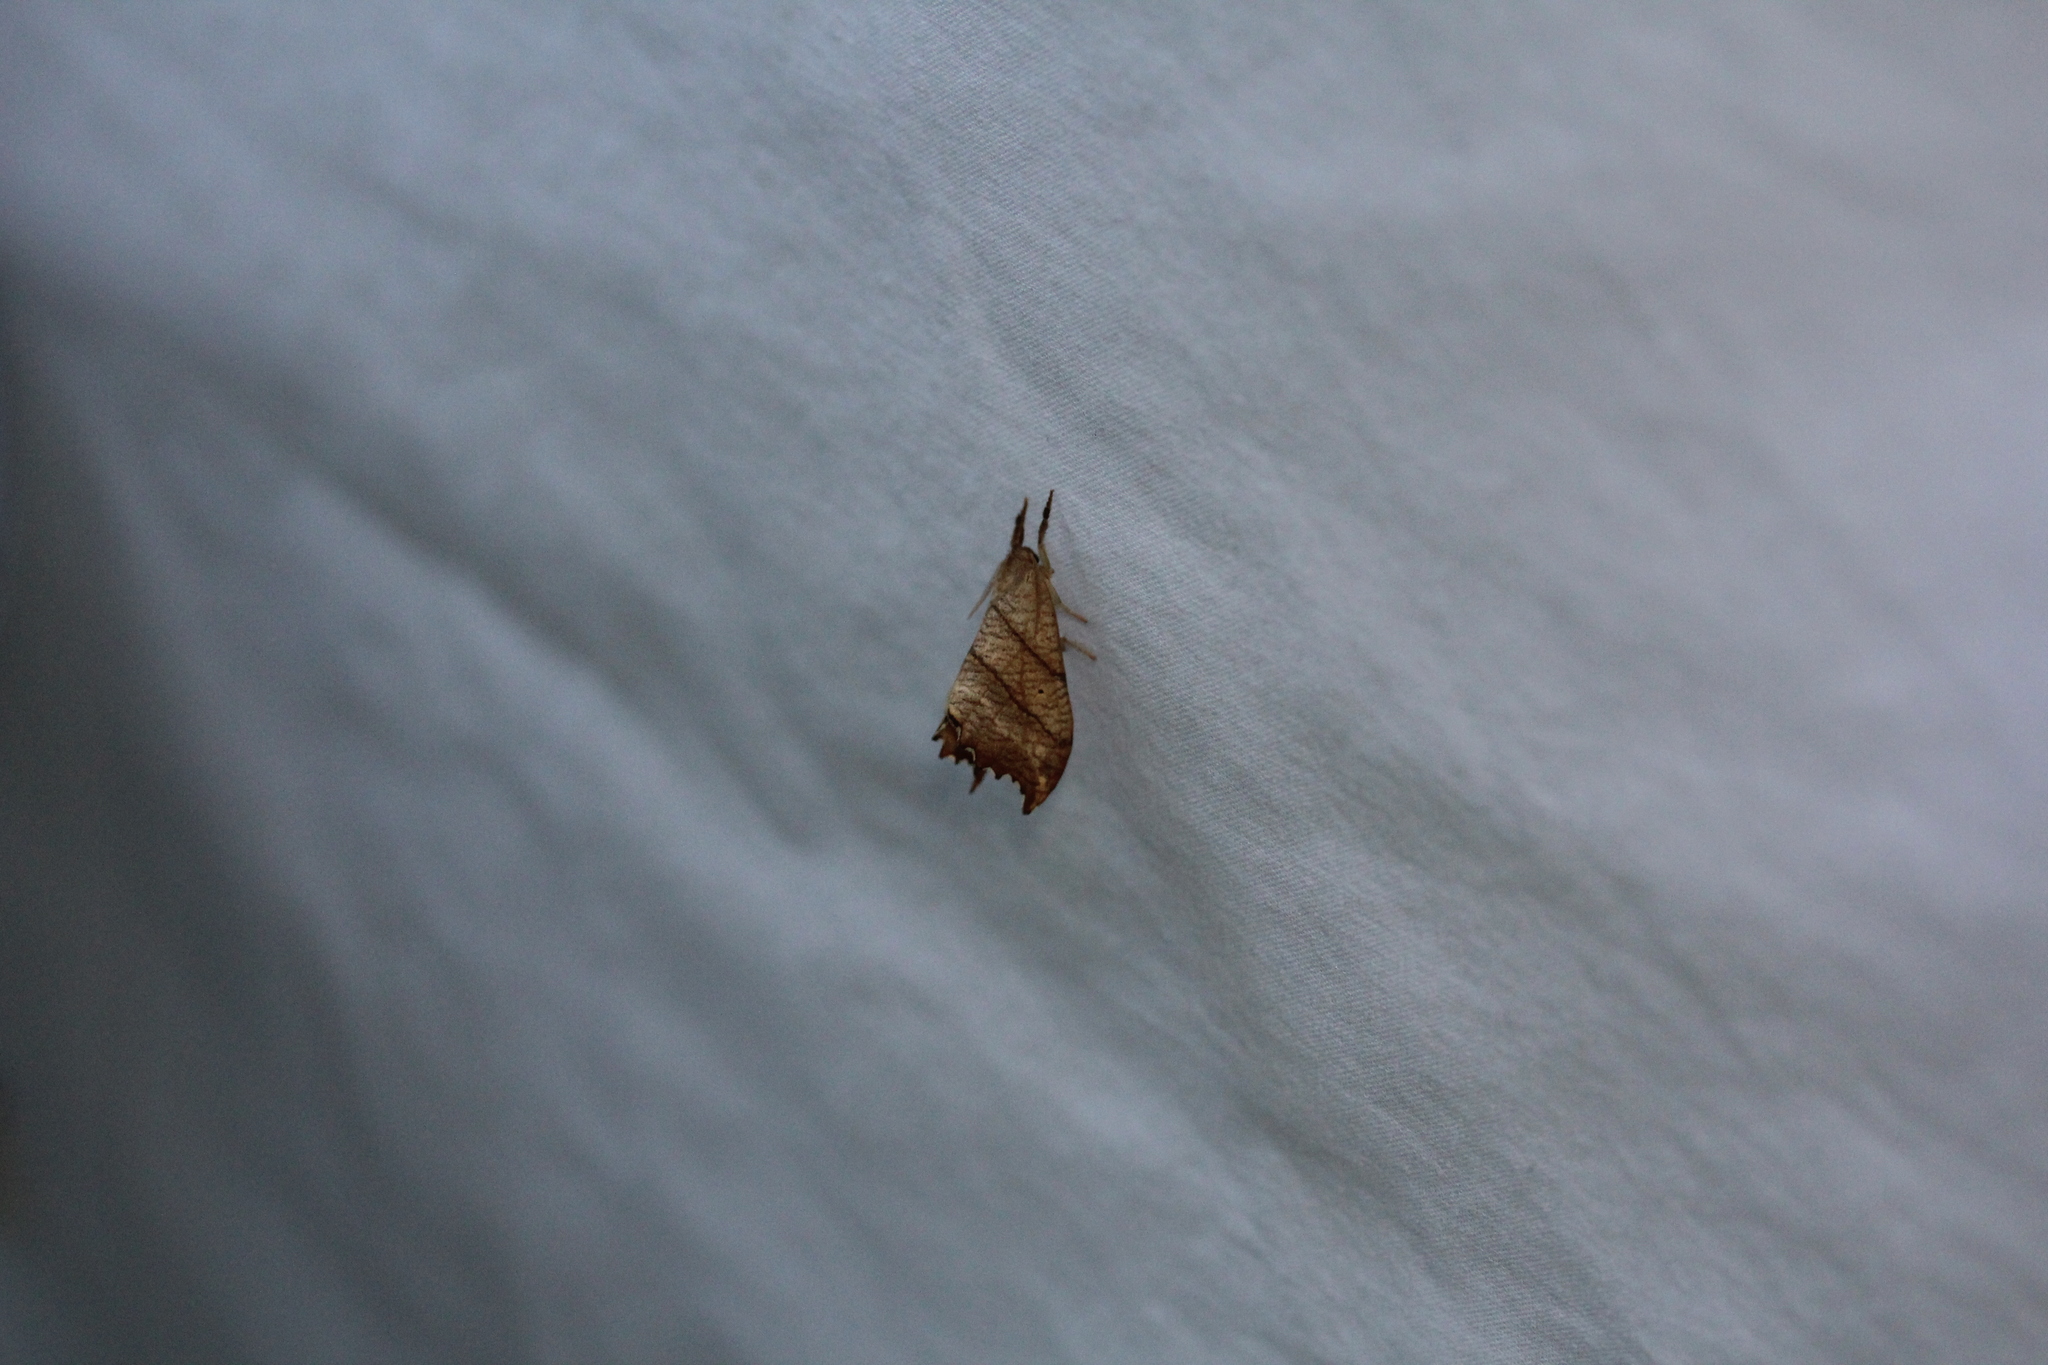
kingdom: Animalia
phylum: Arthropoda
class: Insecta
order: Lepidoptera
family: Drepanidae
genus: Falcaria
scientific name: Falcaria bilineata
